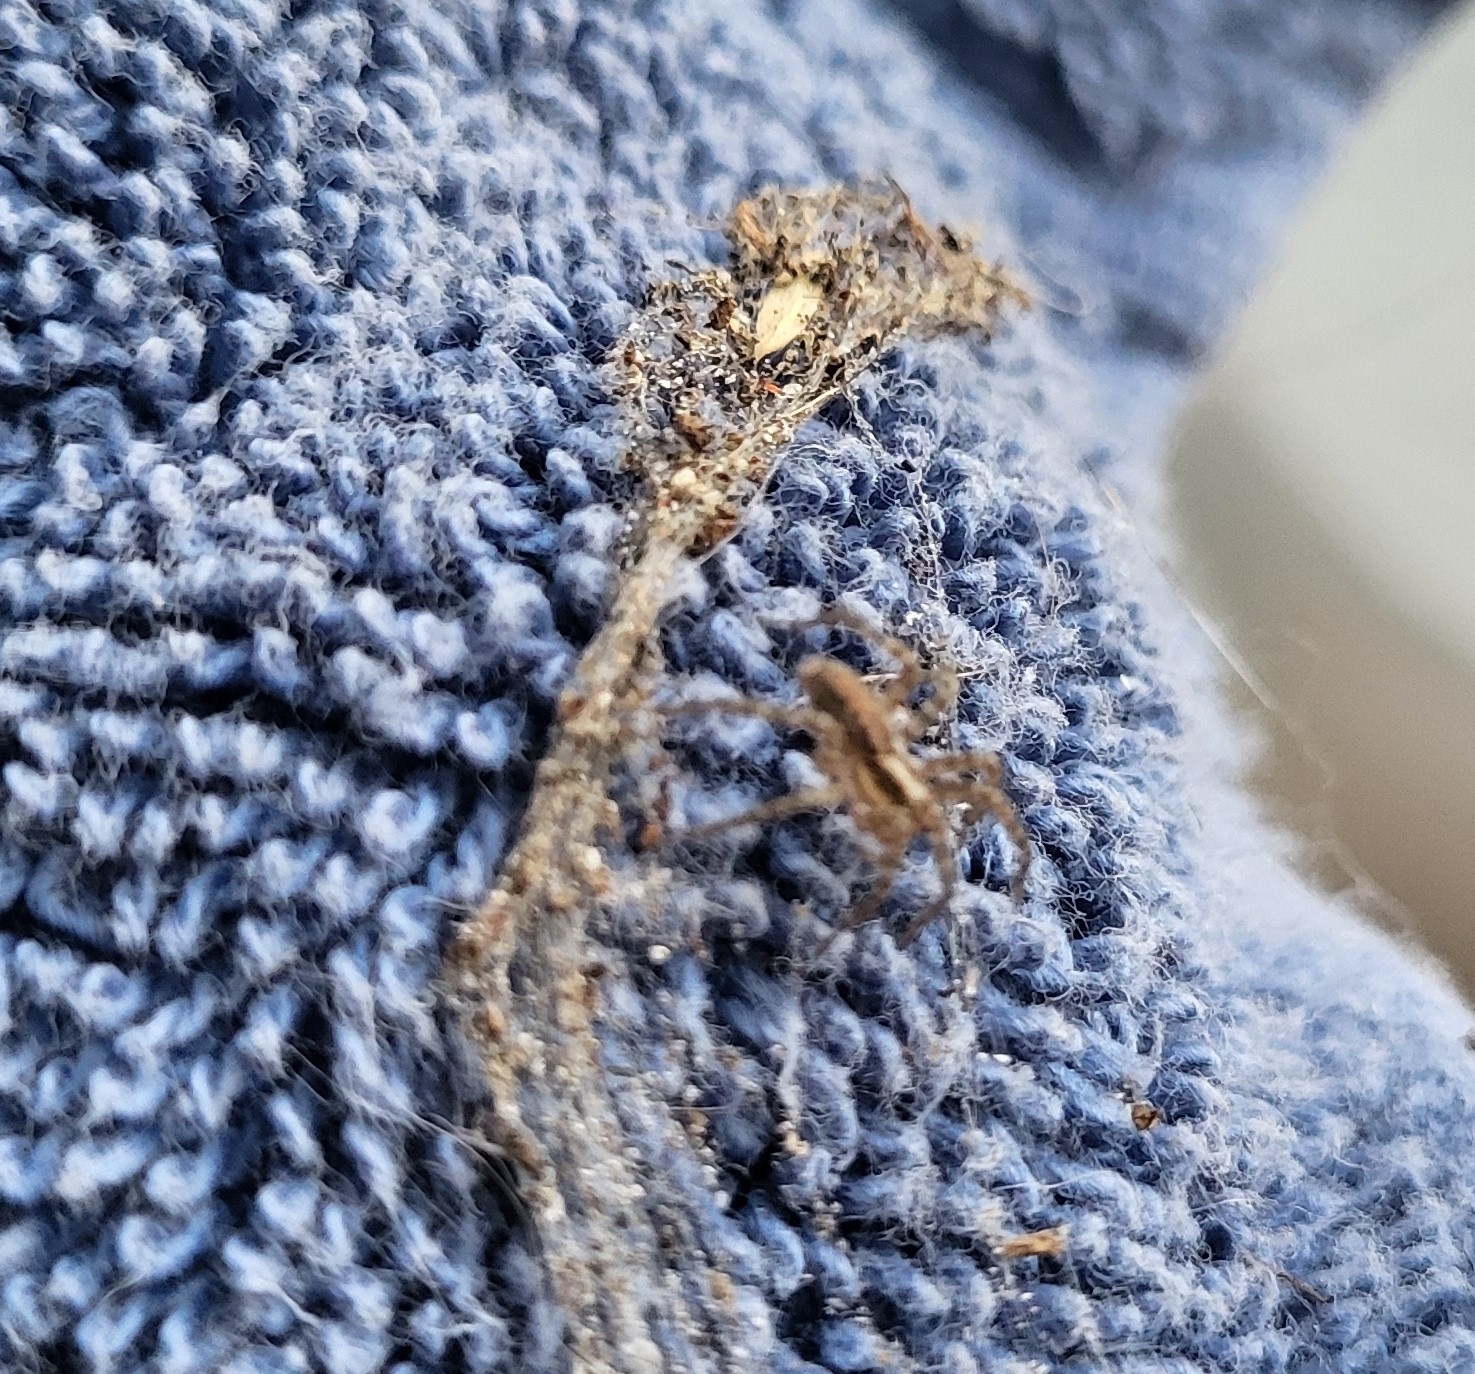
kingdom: Animalia
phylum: Arthropoda
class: Arachnida
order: Araneae
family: Agelenidae
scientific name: Agelenidae
